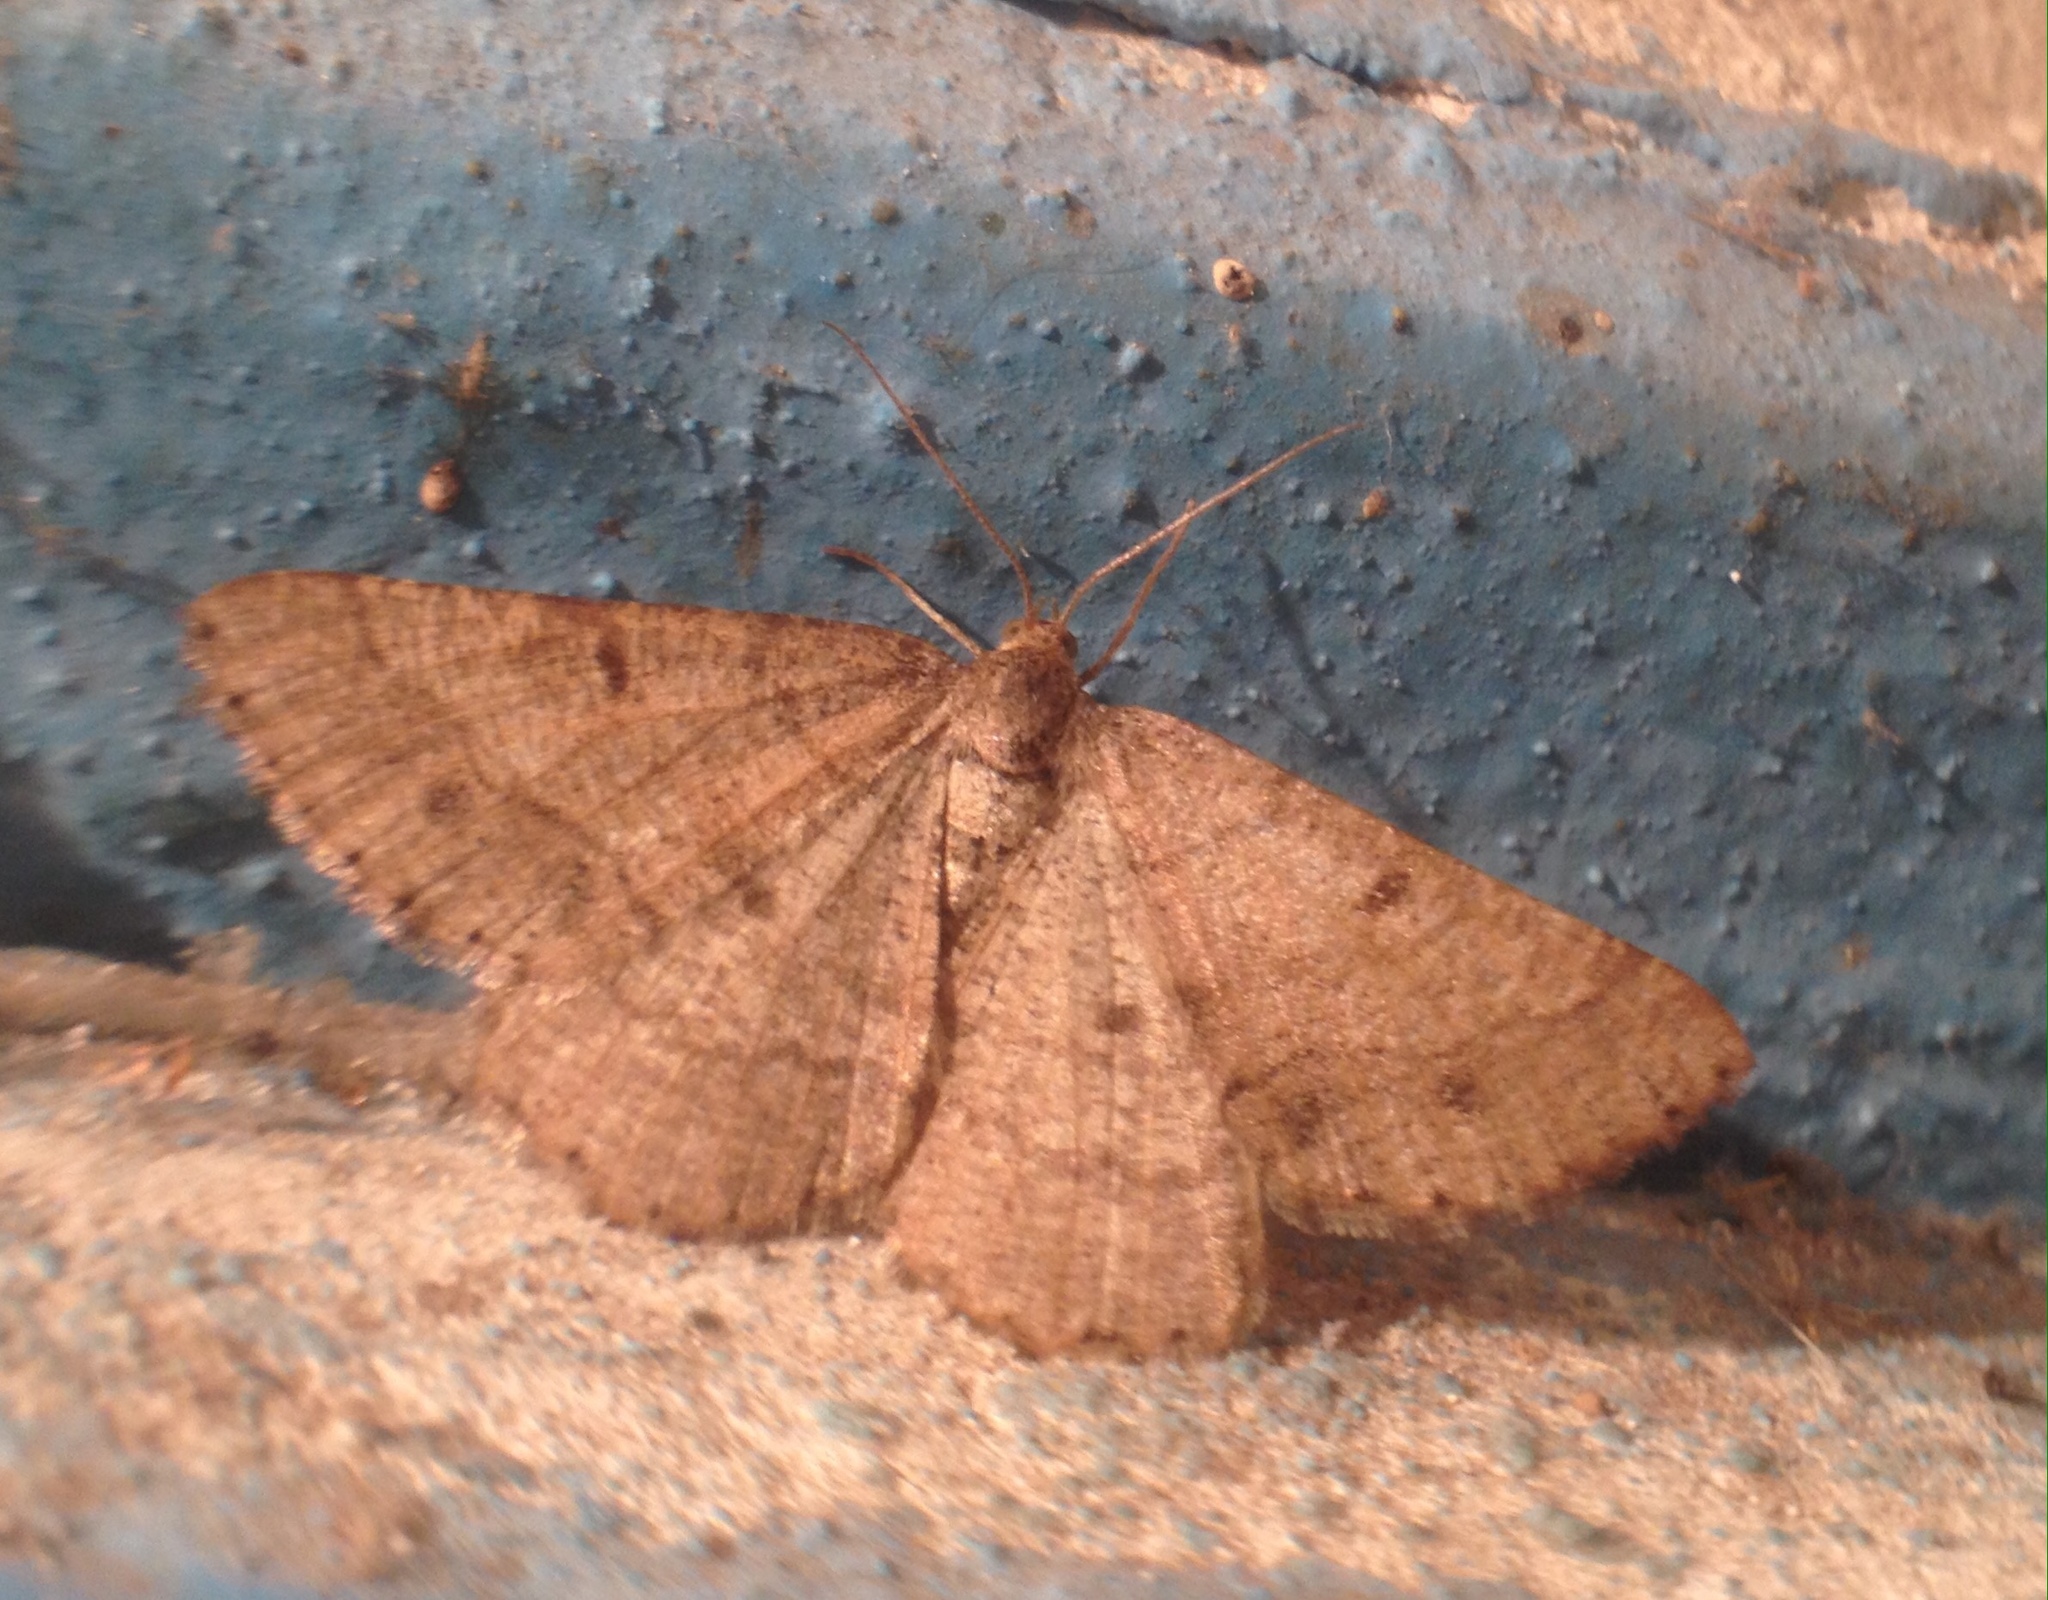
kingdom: Animalia
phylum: Arthropoda
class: Insecta
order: Lepidoptera
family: Geometridae
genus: Tephrina
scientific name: Tephrina murinaria
